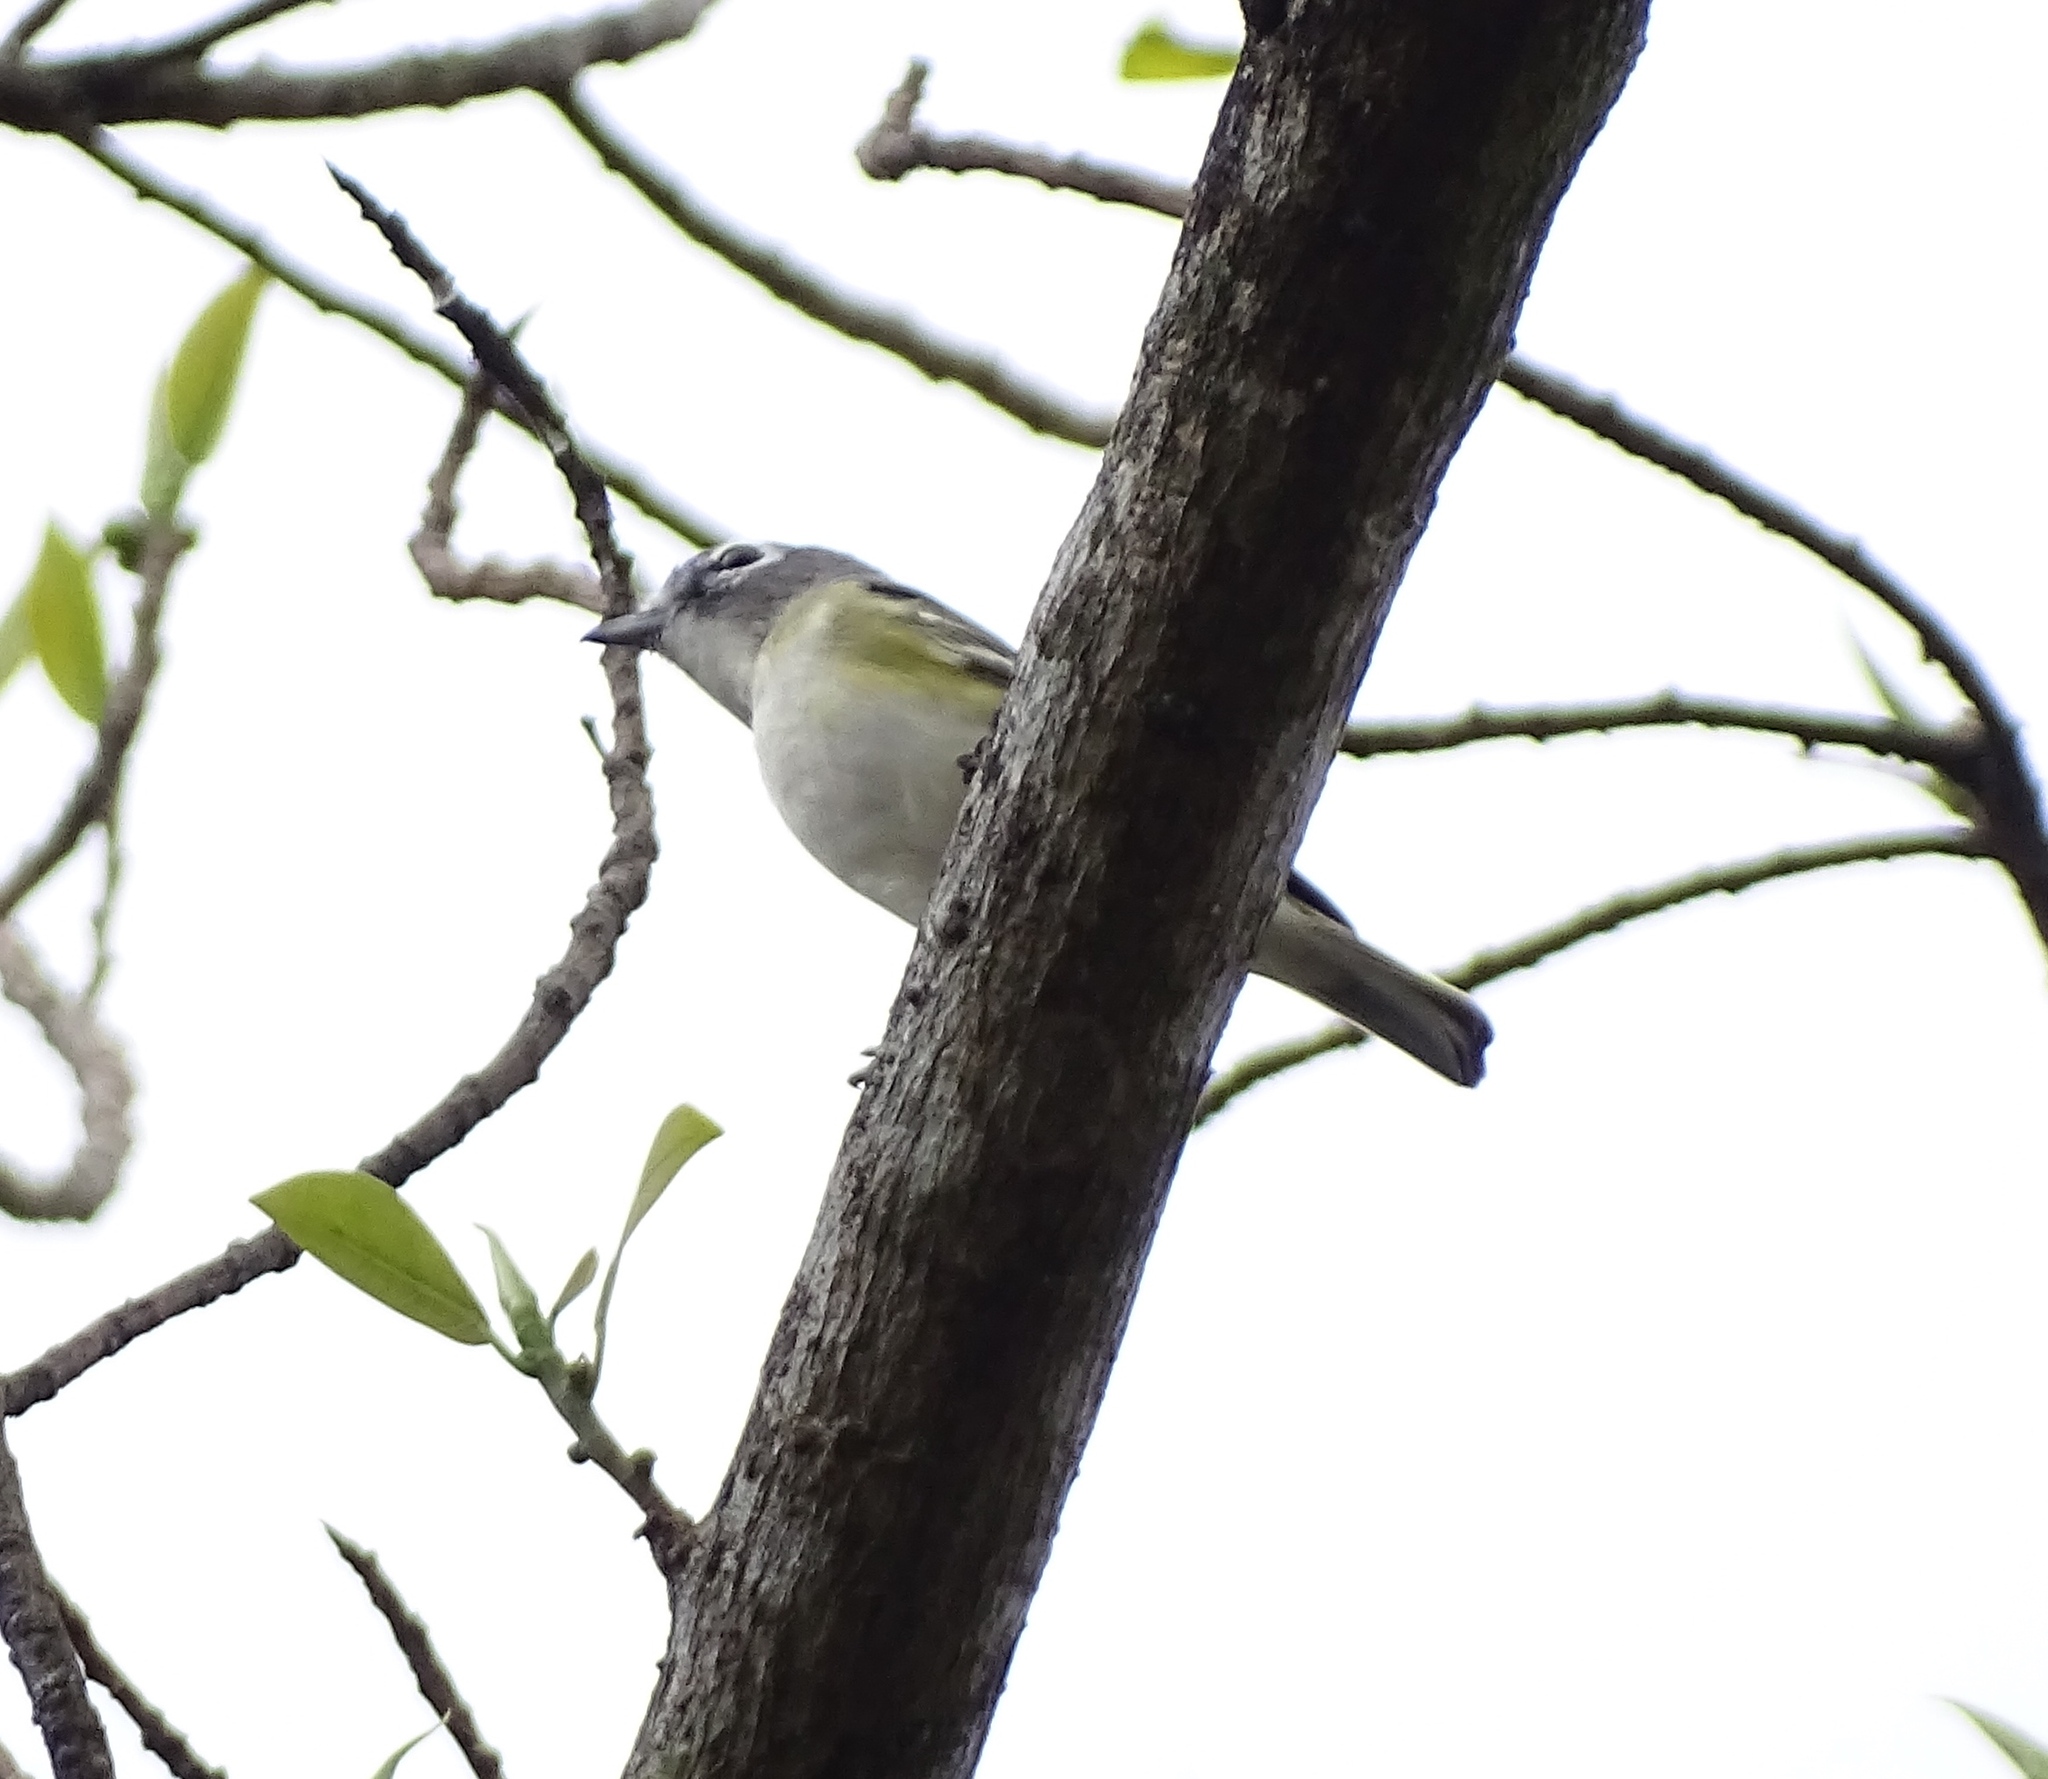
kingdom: Animalia
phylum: Chordata
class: Aves
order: Passeriformes
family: Vireonidae
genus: Vireo
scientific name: Vireo solitarius
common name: Blue-headed vireo
